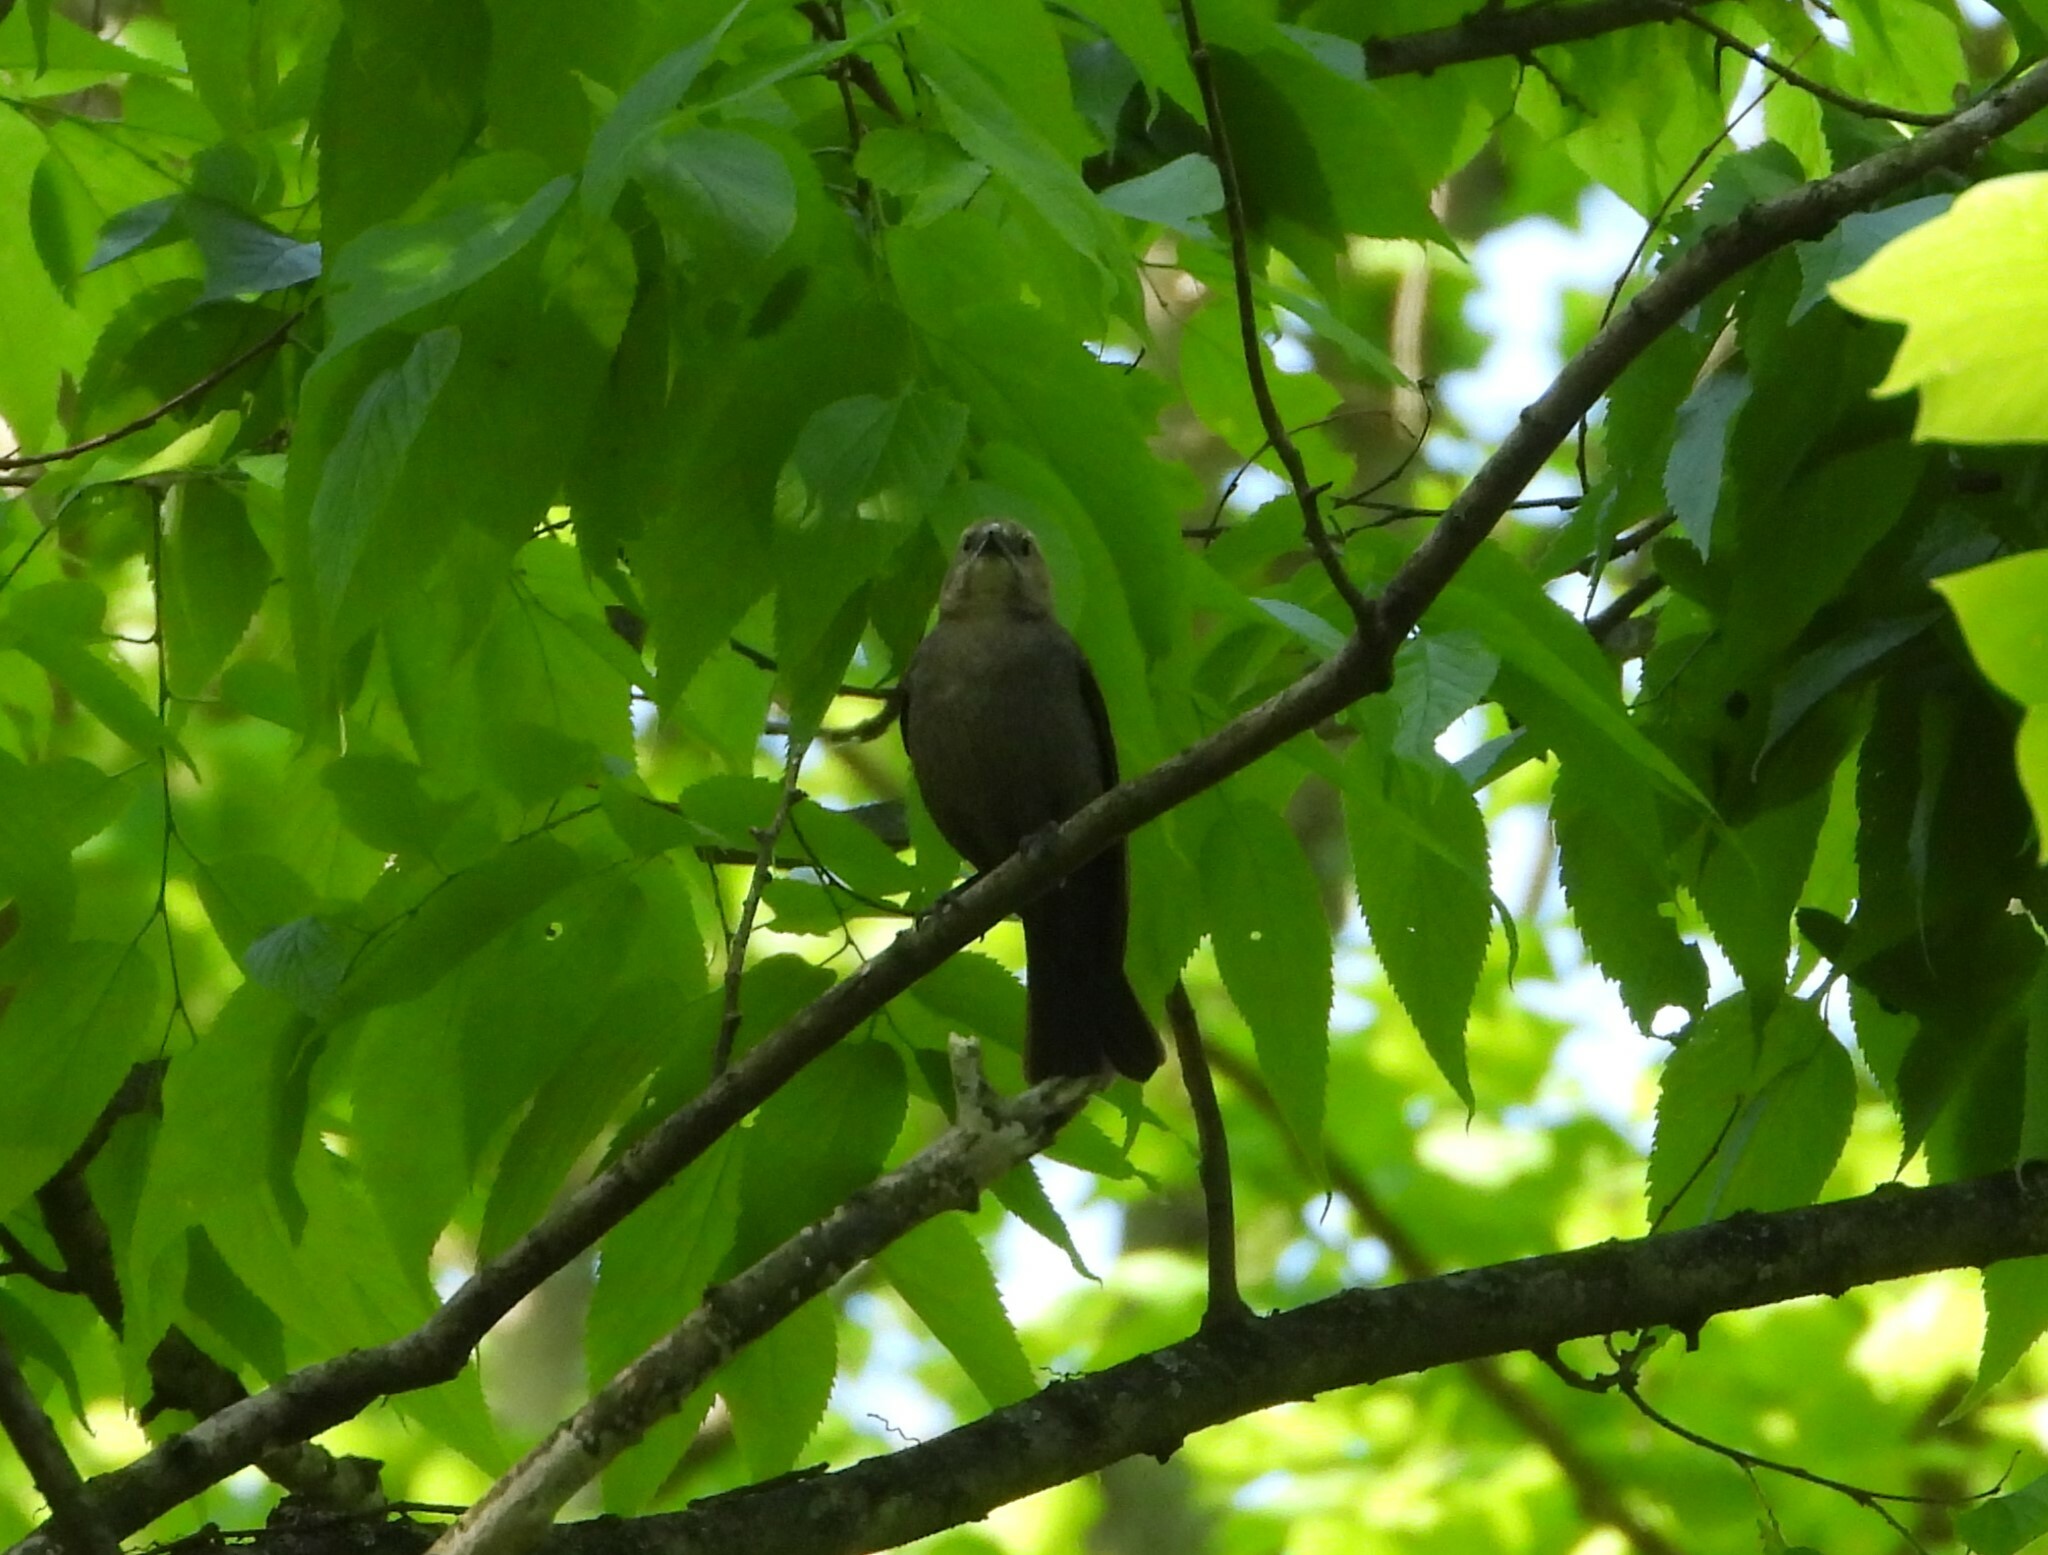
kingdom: Animalia
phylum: Chordata
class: Aves
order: Passeriformes
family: Icteridae
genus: Molothrus
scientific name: Molothrus ater
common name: Brown-headed cowbird
